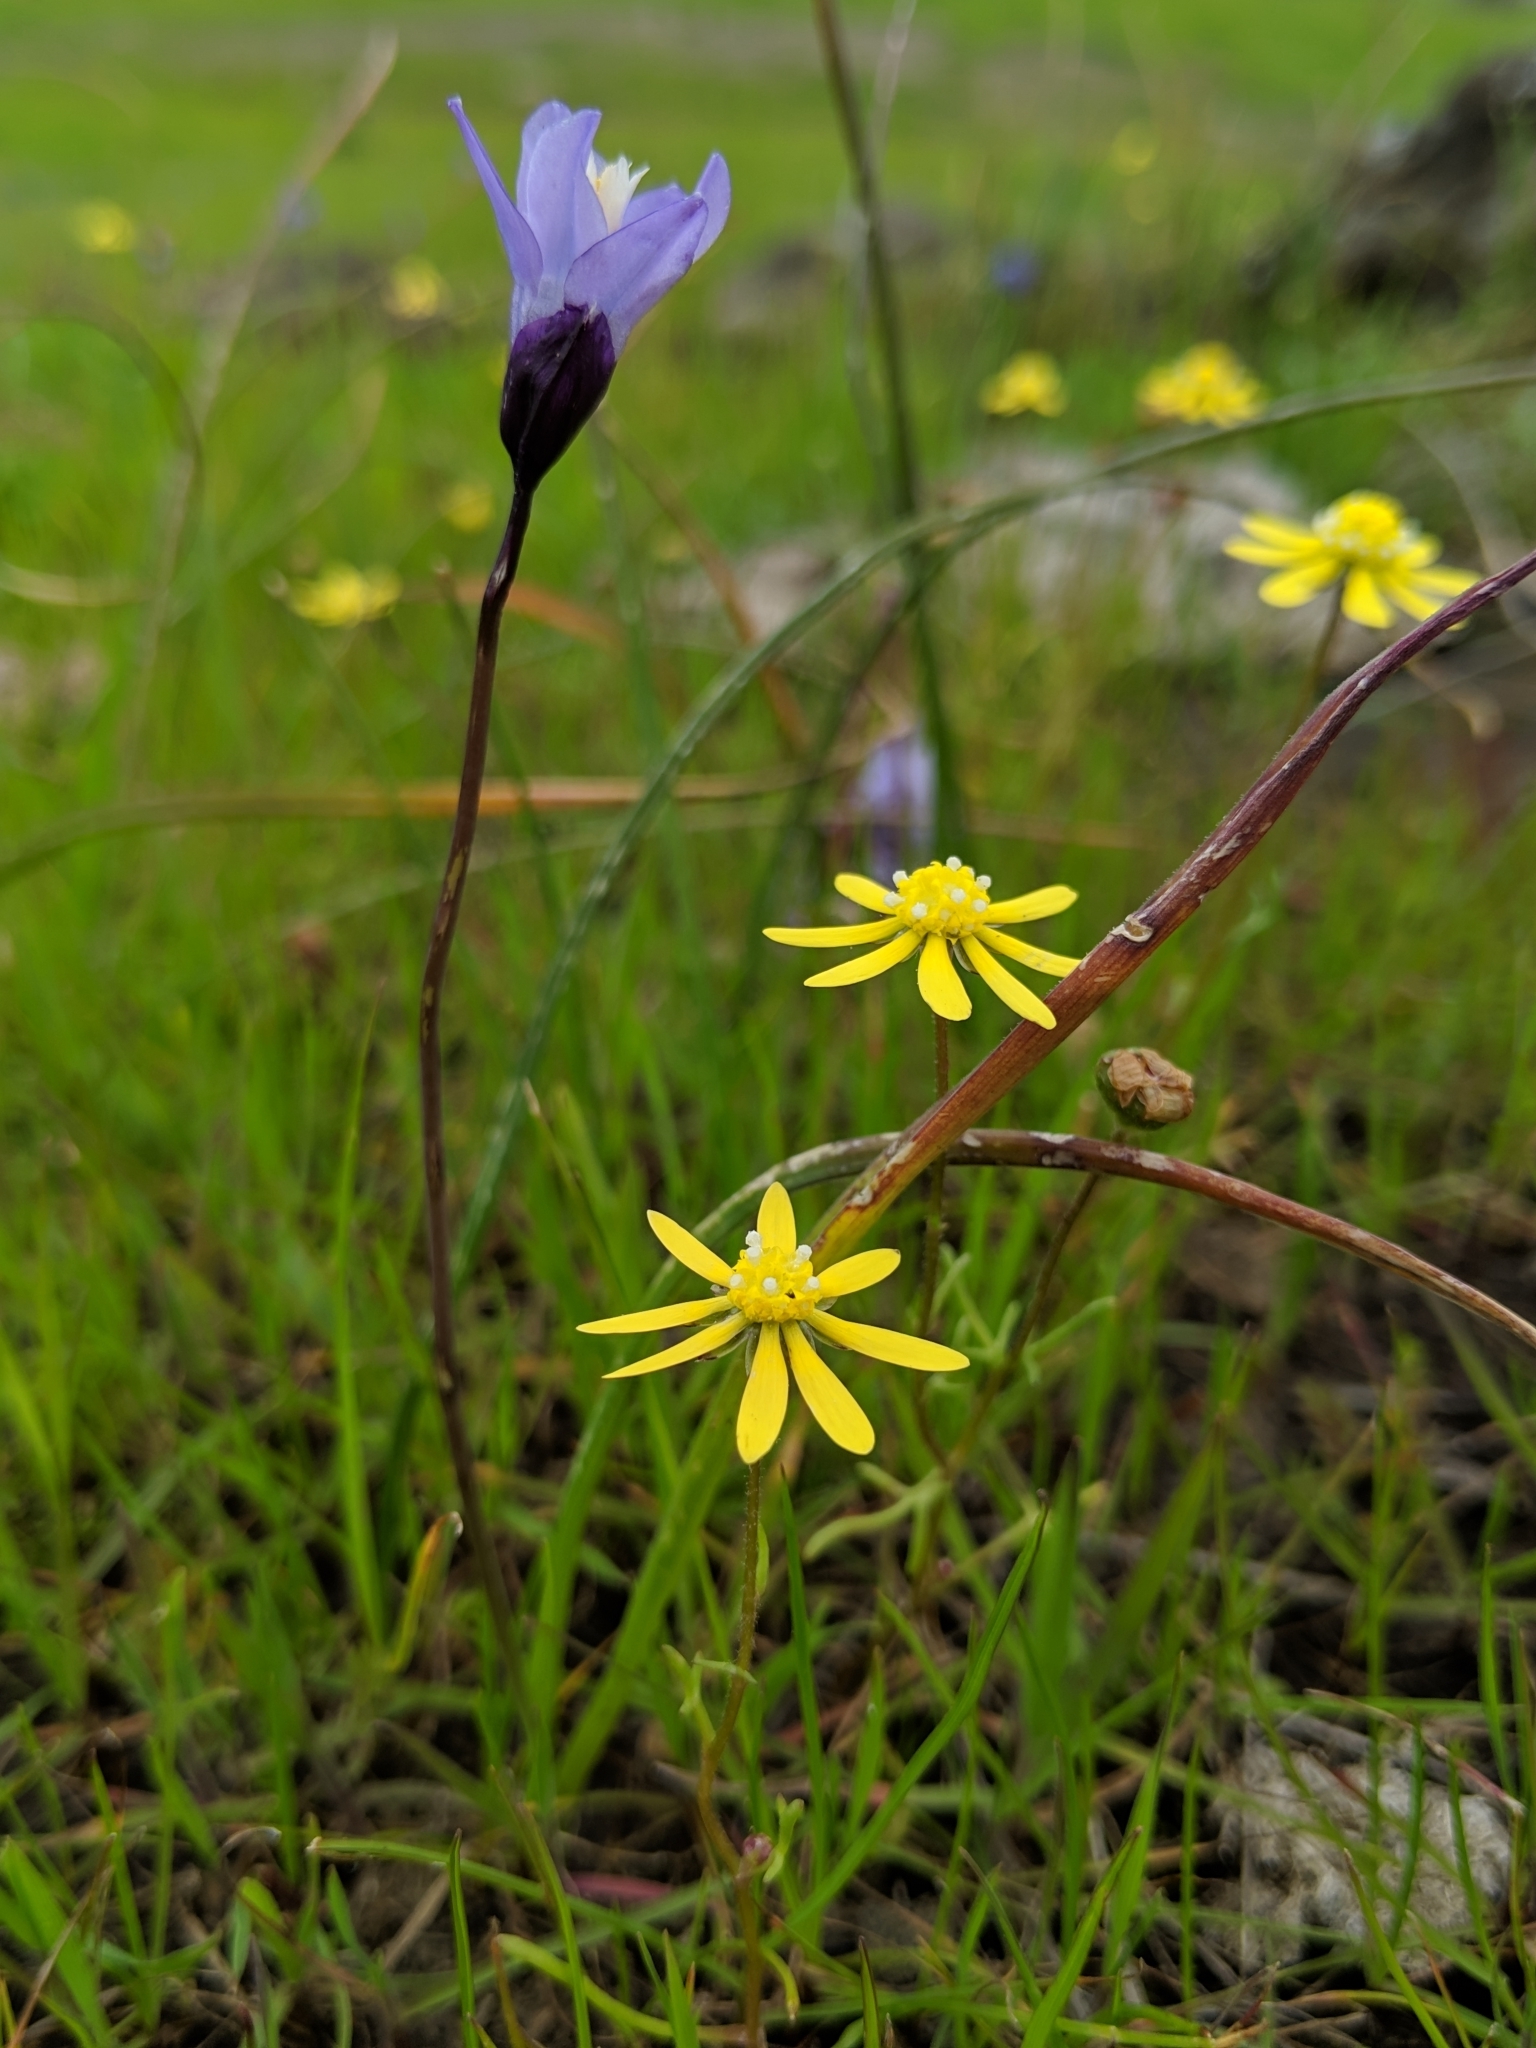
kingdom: Plantae
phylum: Tracheophyta
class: Magnoliopsida
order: Asterales
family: Asteraceae
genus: Blennosperma
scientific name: Blennosperma nanum
